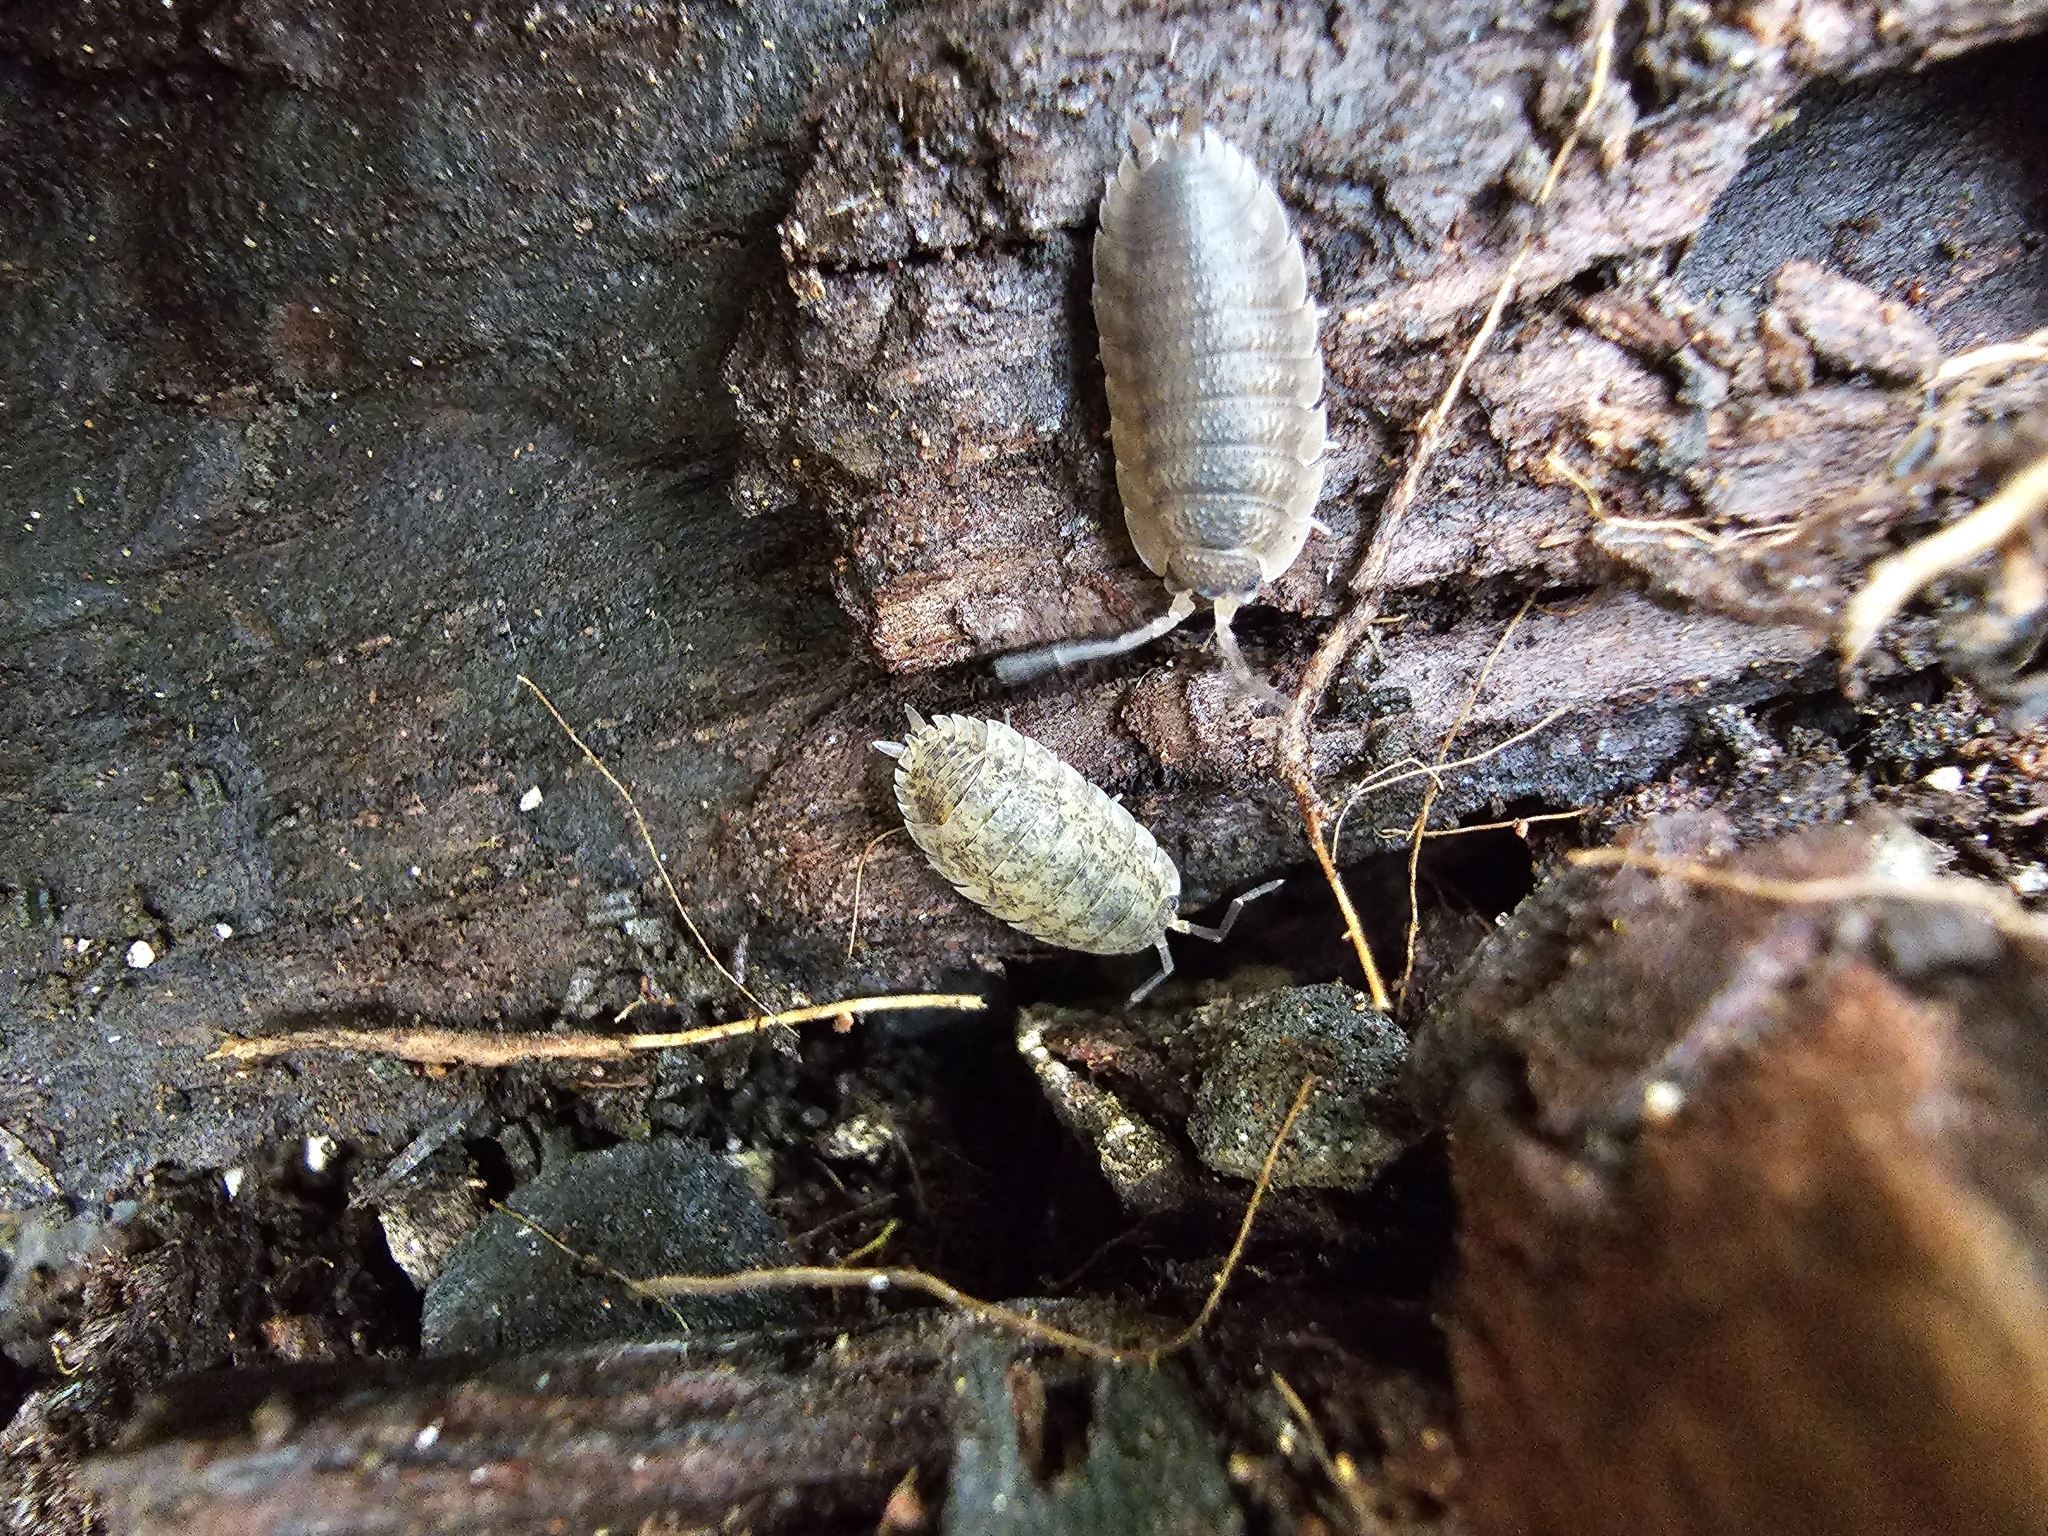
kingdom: Animalia
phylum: Arthropoda
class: Malacostraca
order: Isopoda
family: Porcellionidae
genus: Porcellio
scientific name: Porcellio scaber
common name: Common rough woodlouse
